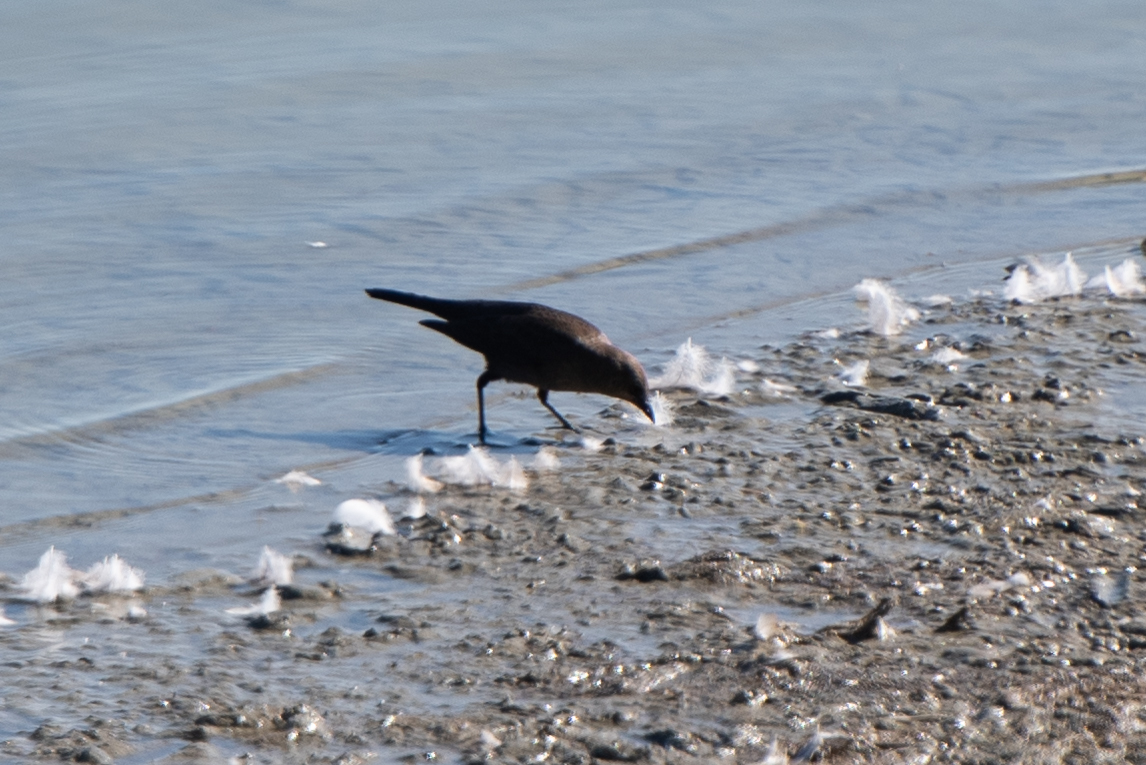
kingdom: Animalia
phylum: Chordata
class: Aves
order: Passeriformes
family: Icteridae
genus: Euphagus
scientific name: Euphagus cyanocephalus
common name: Brewer's blackbird
